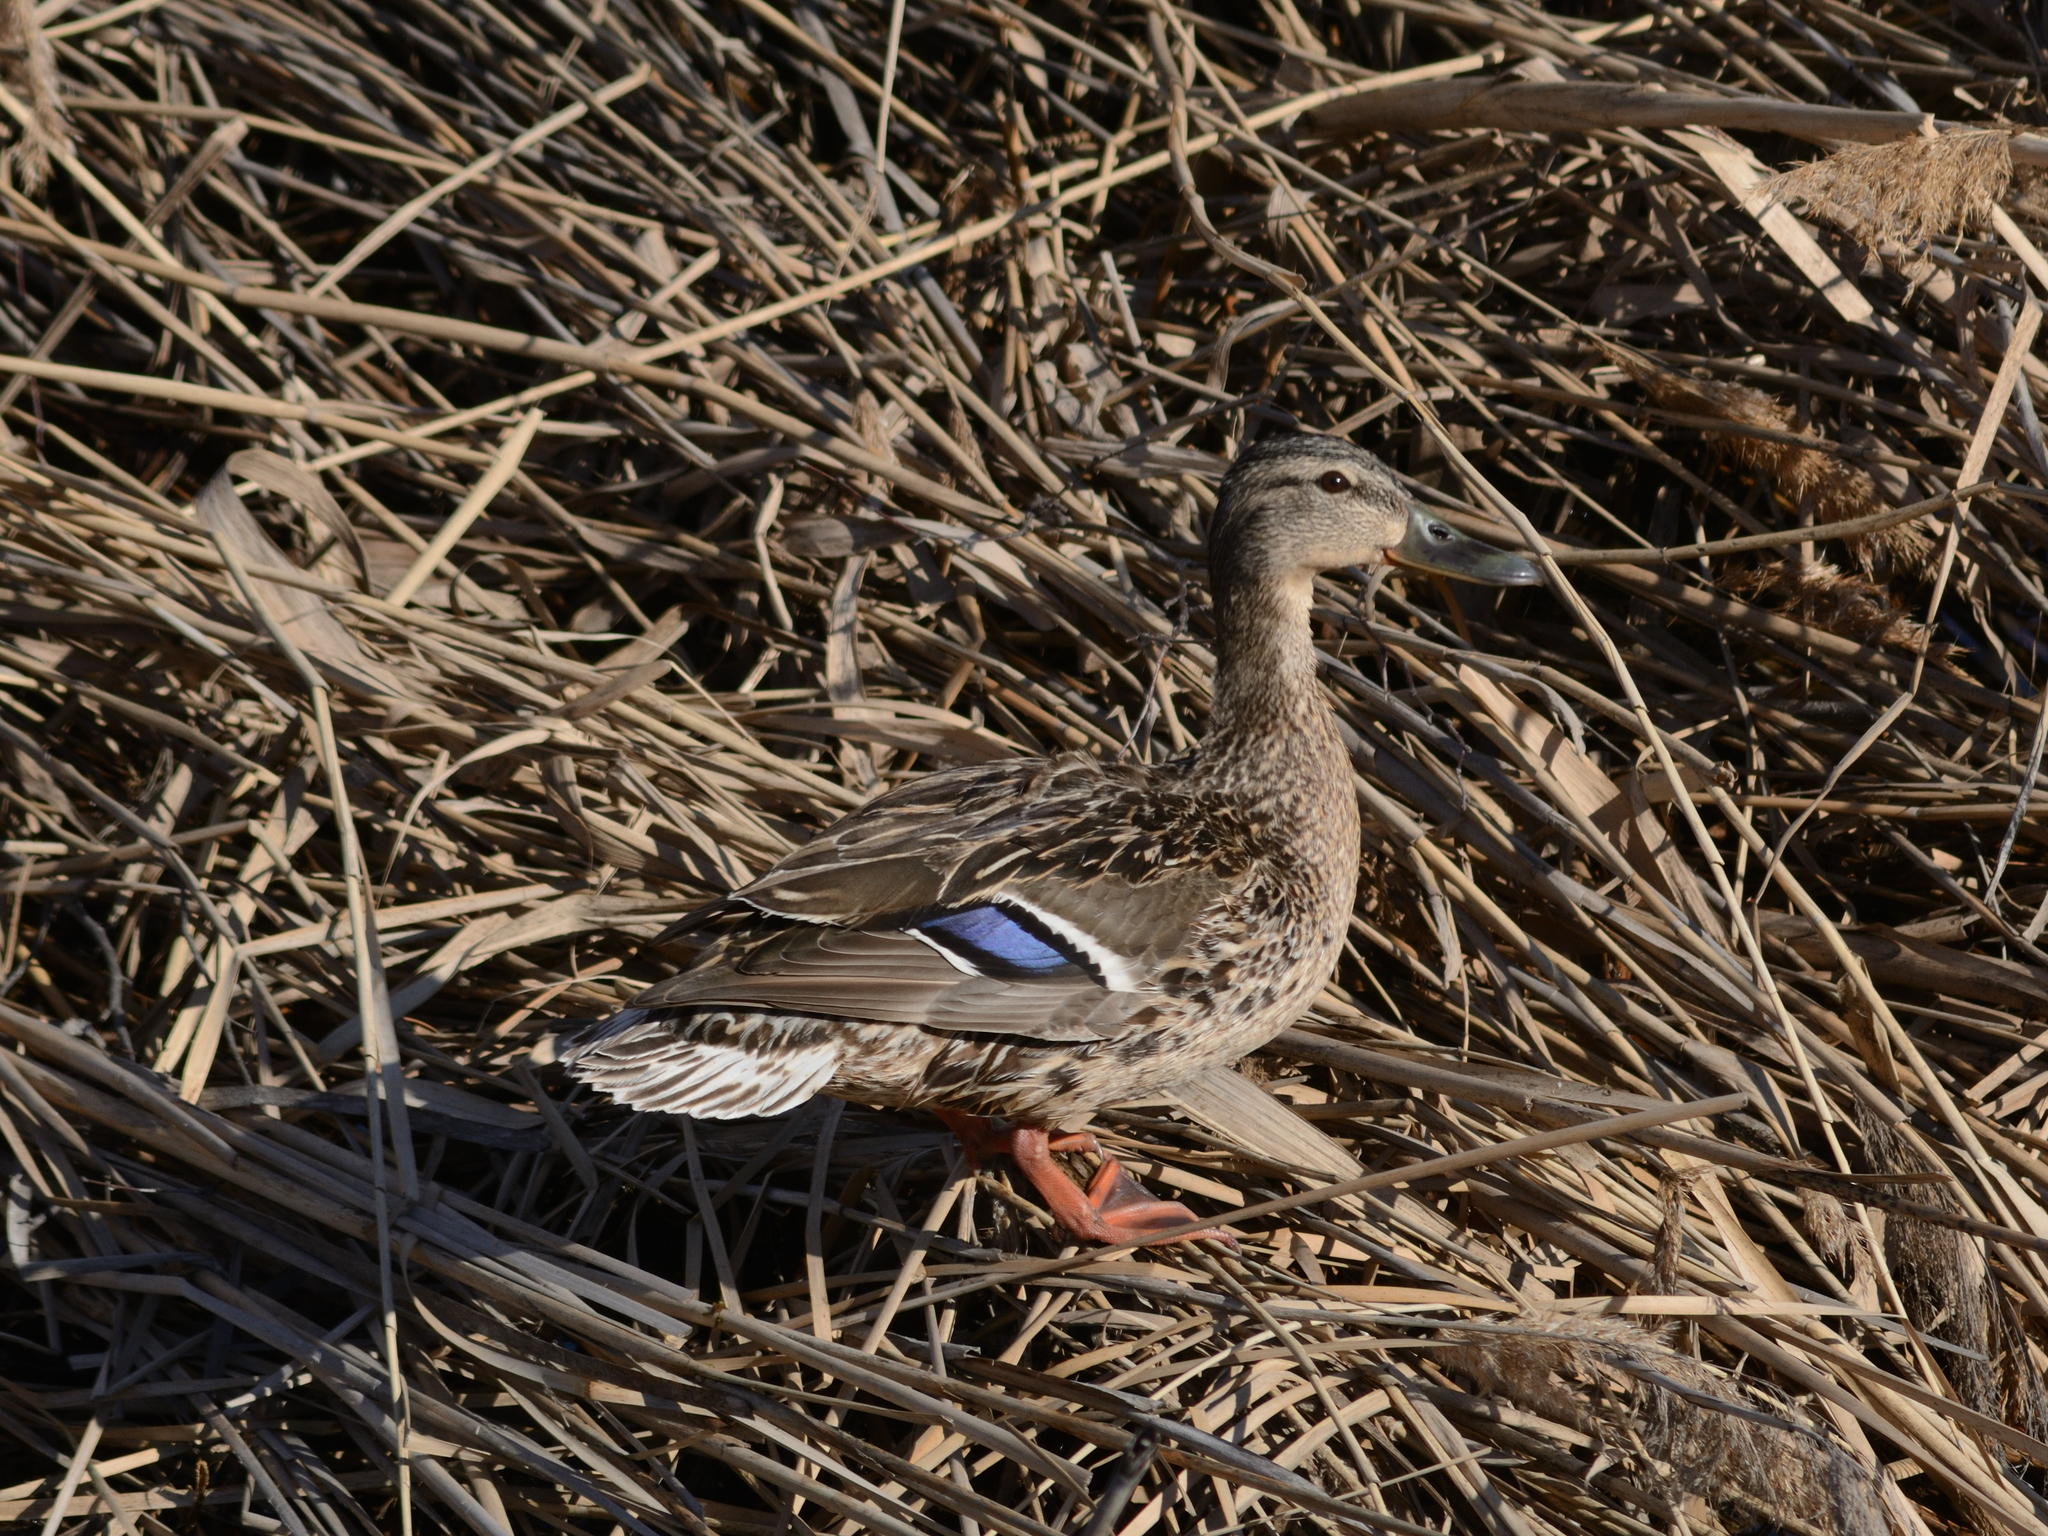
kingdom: Animalia
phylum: Chordata
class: Aves
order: Anseriformes
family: Anatidae
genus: Anas
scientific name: Anas platyrhynchos
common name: Mallard
